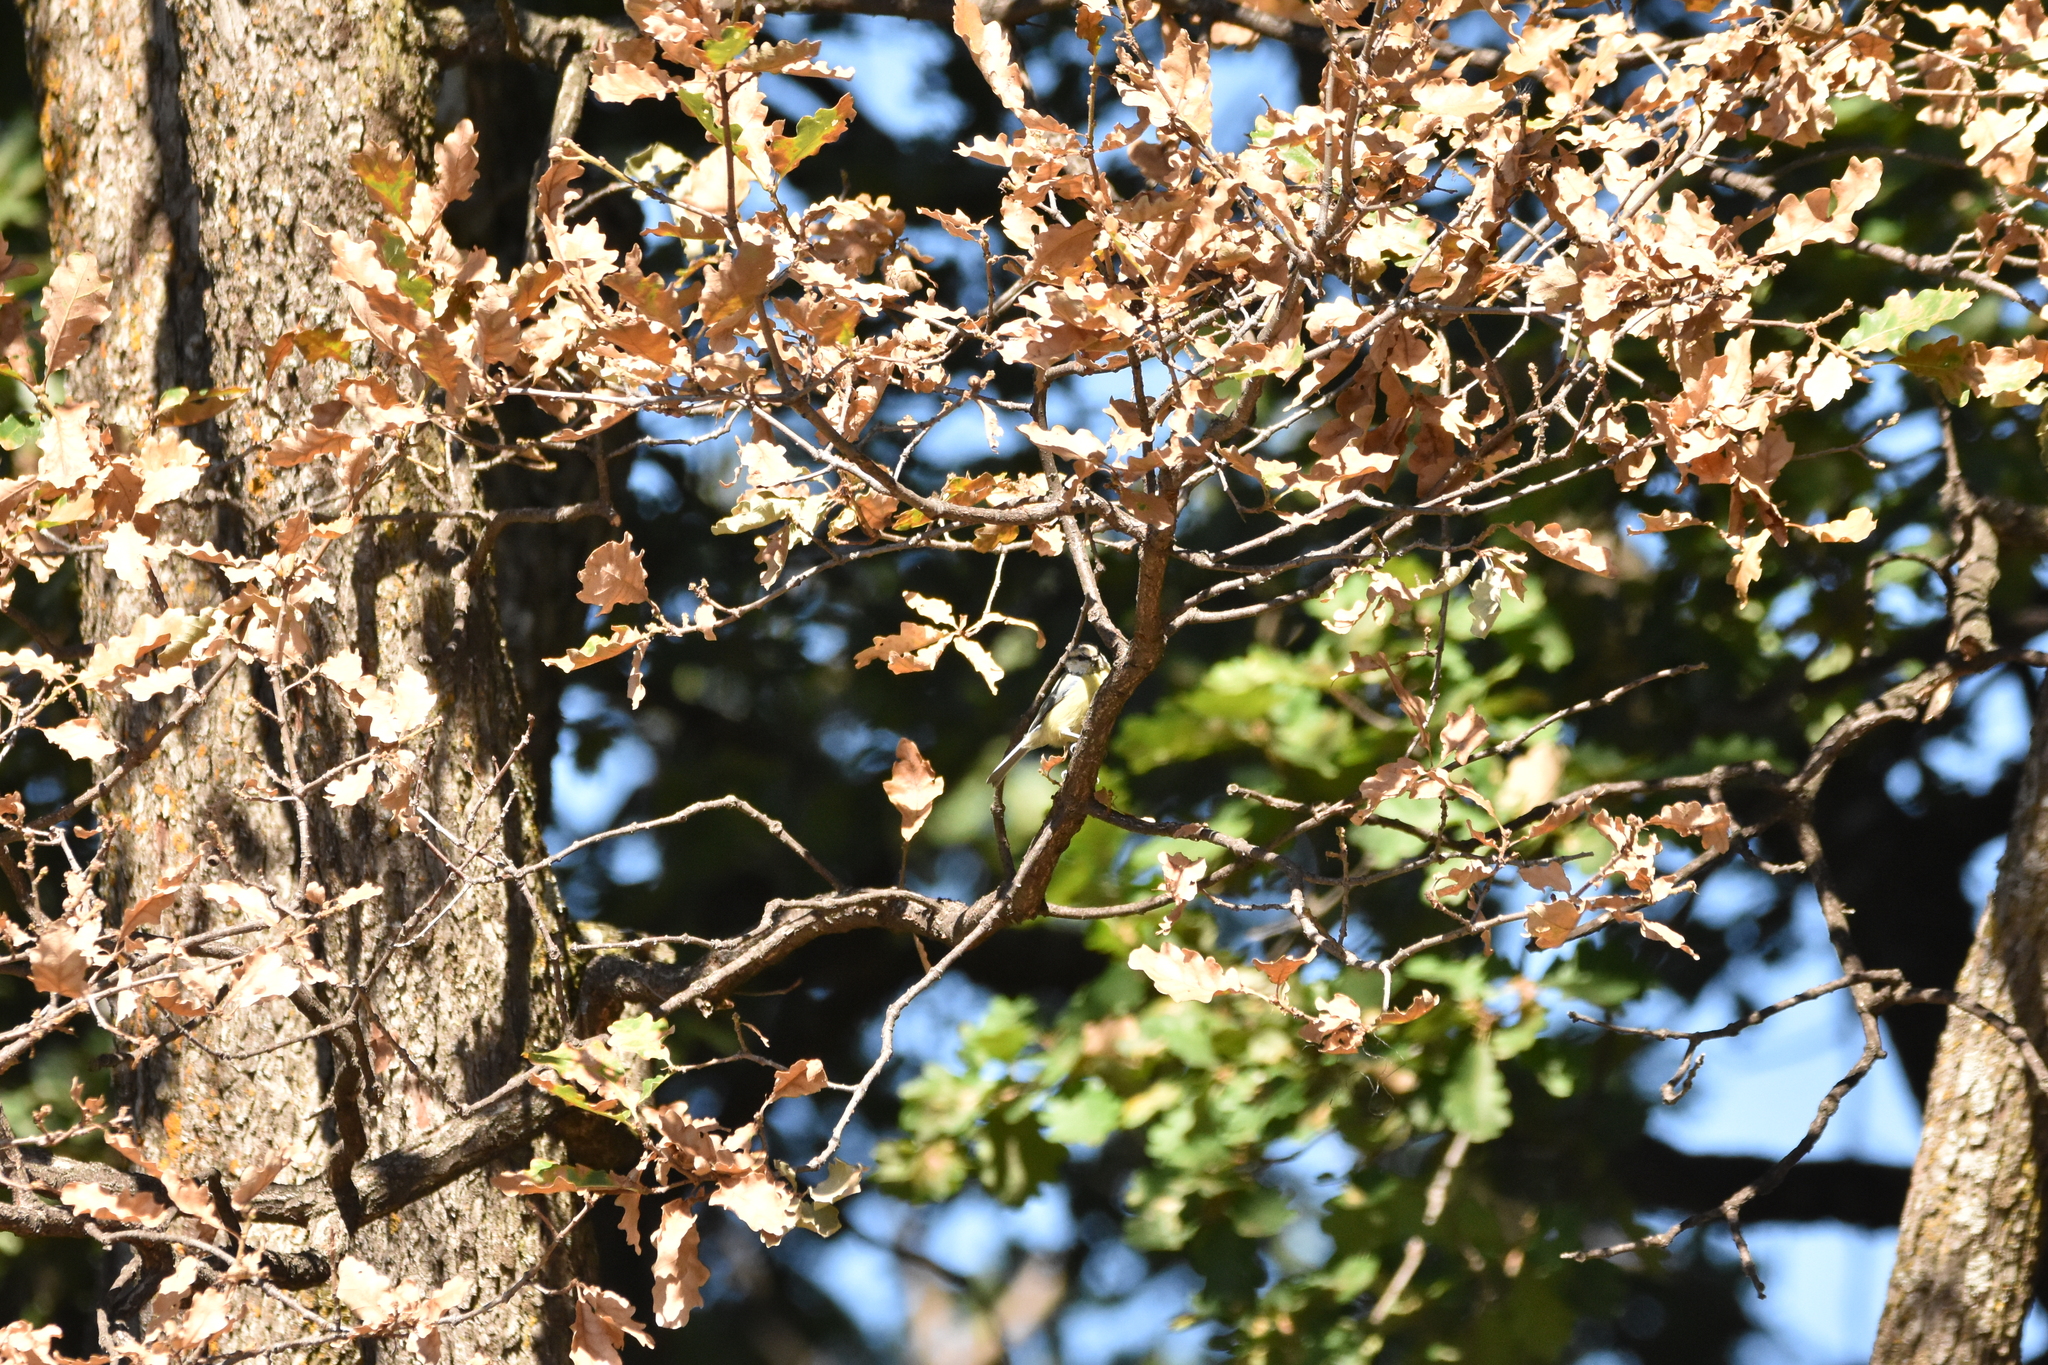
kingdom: Animalia
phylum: Chordata
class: Aves
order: Passeriformes
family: Paridae
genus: Cyanistes
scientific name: Cyanistes caeruleus
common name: Eurasian blue tit
